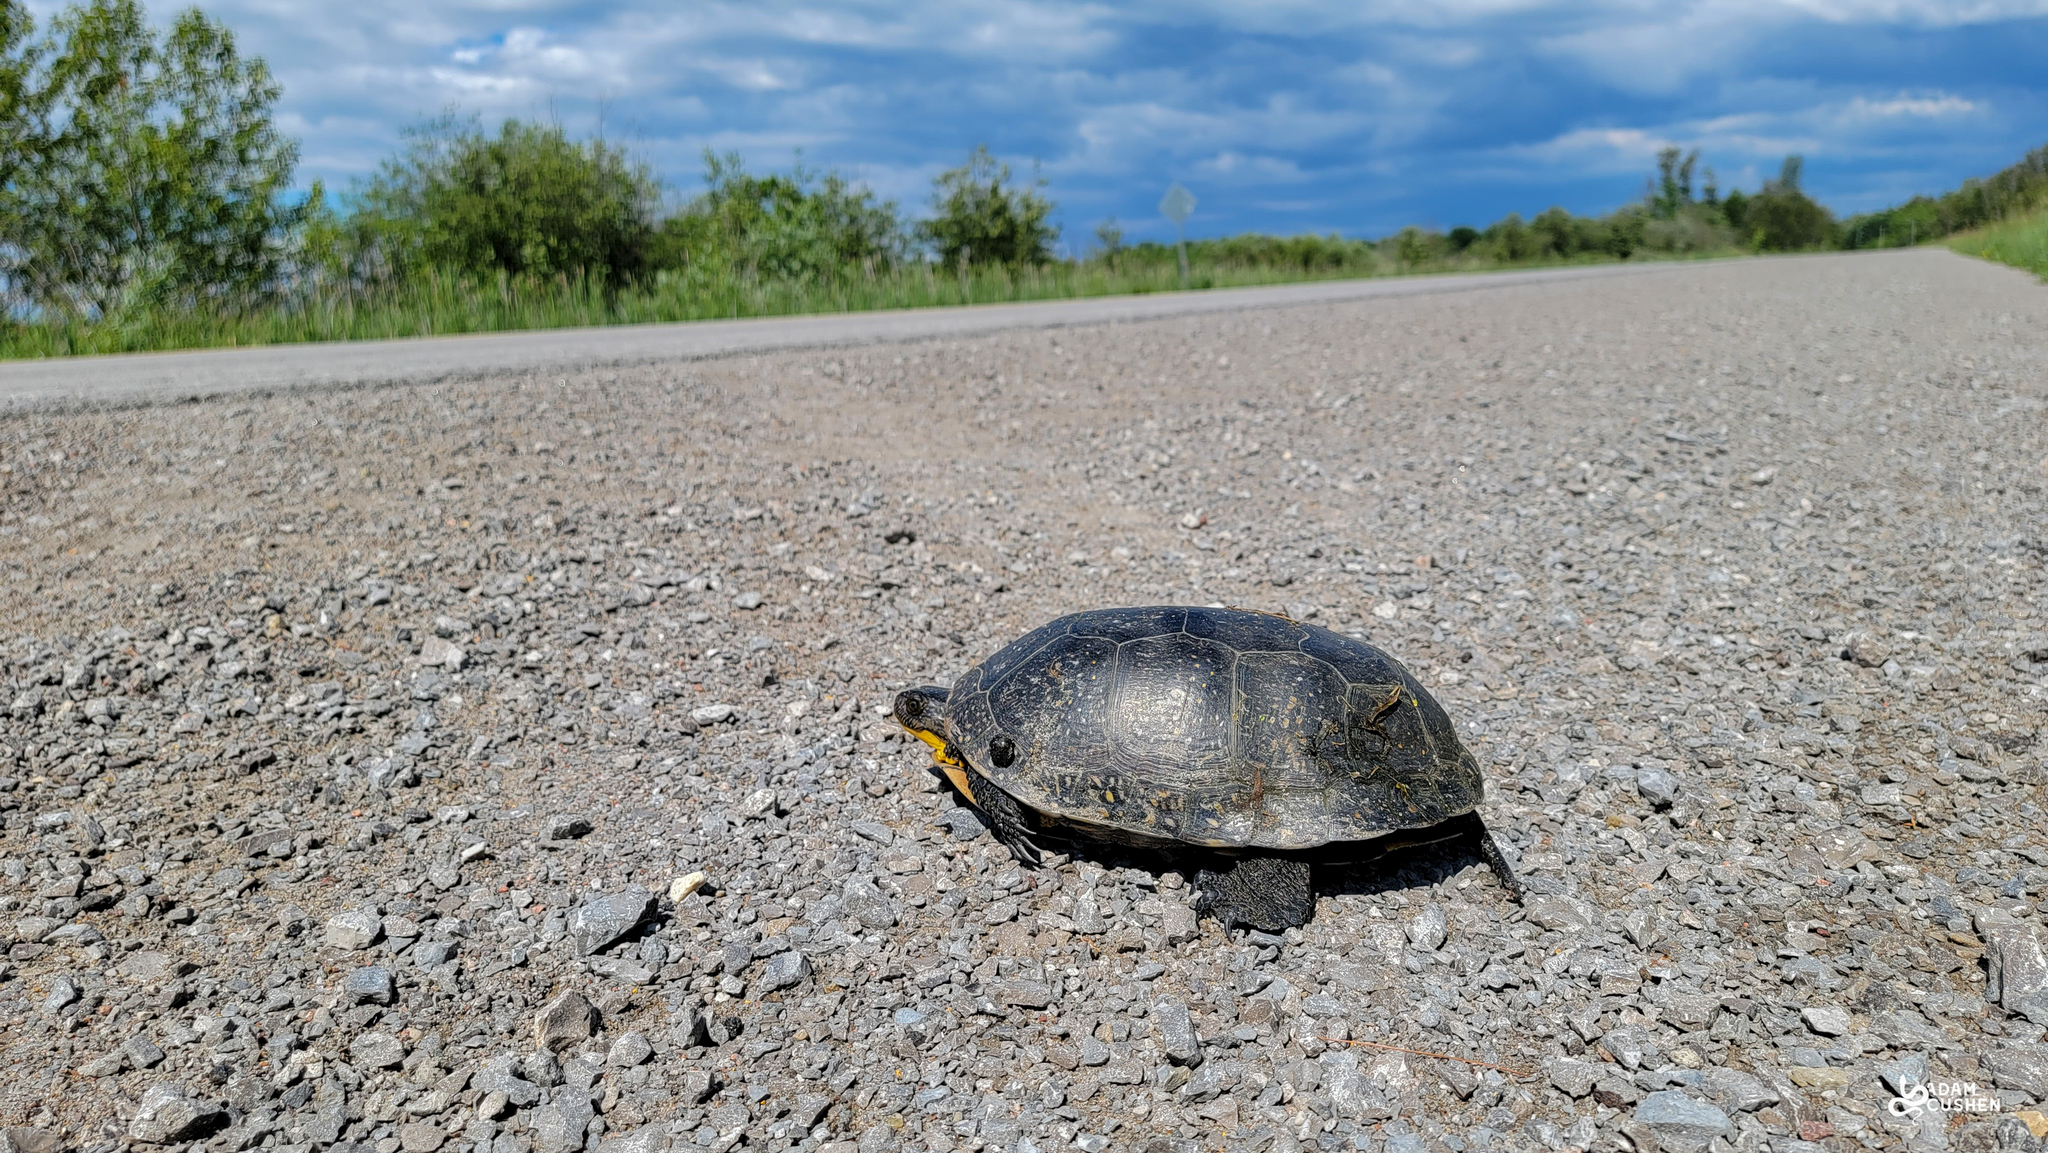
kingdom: Animalia
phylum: Chordata
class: Testudines
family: Emydidae
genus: Emys
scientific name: Emys blandingii
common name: Blanding's turtle
